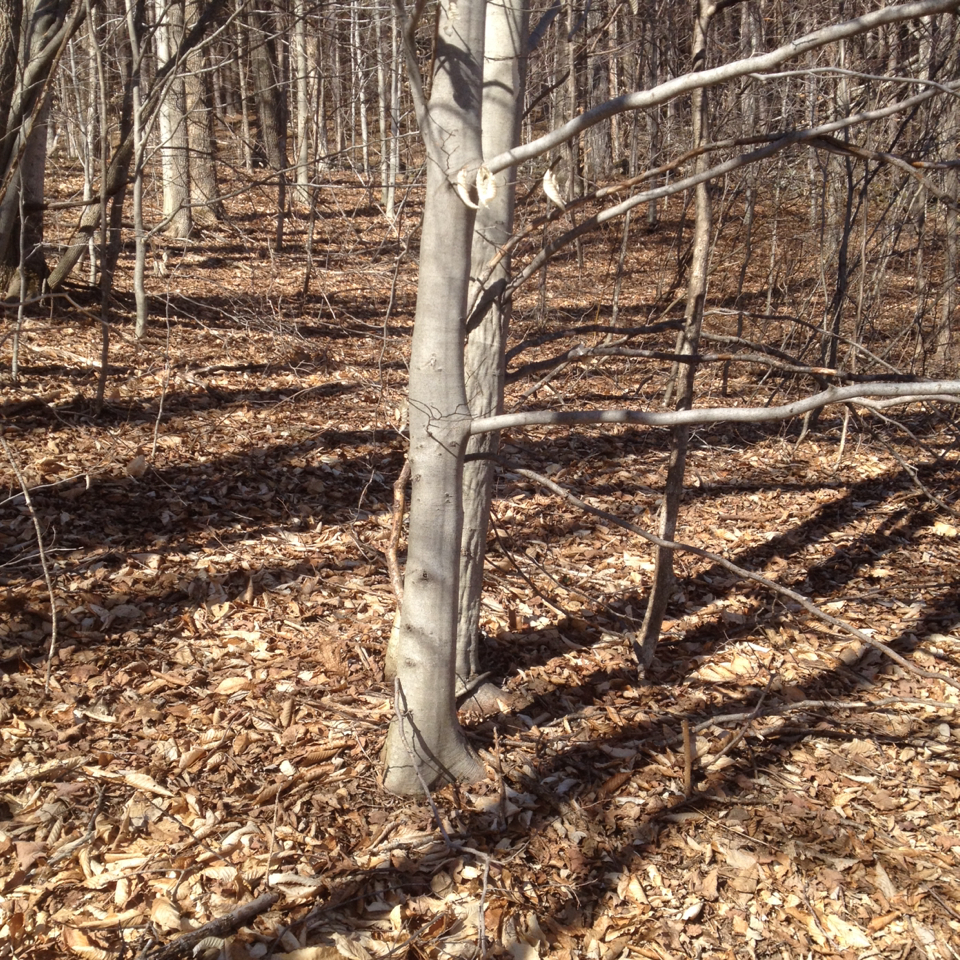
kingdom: Plantae
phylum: Tracheophyta
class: Magnoliopsida
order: Fagales
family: Fagaceae
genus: Fagus
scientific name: Fagus grandifolia
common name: American beech
